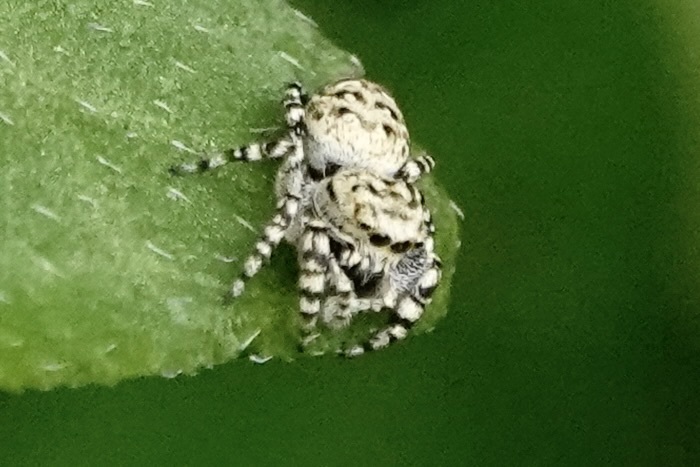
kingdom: Animalia
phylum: Arthropoda
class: Arachnida
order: Araneae
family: Salticidae
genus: Pelegrina
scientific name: Pelegrina galathea
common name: Jumping spiders
